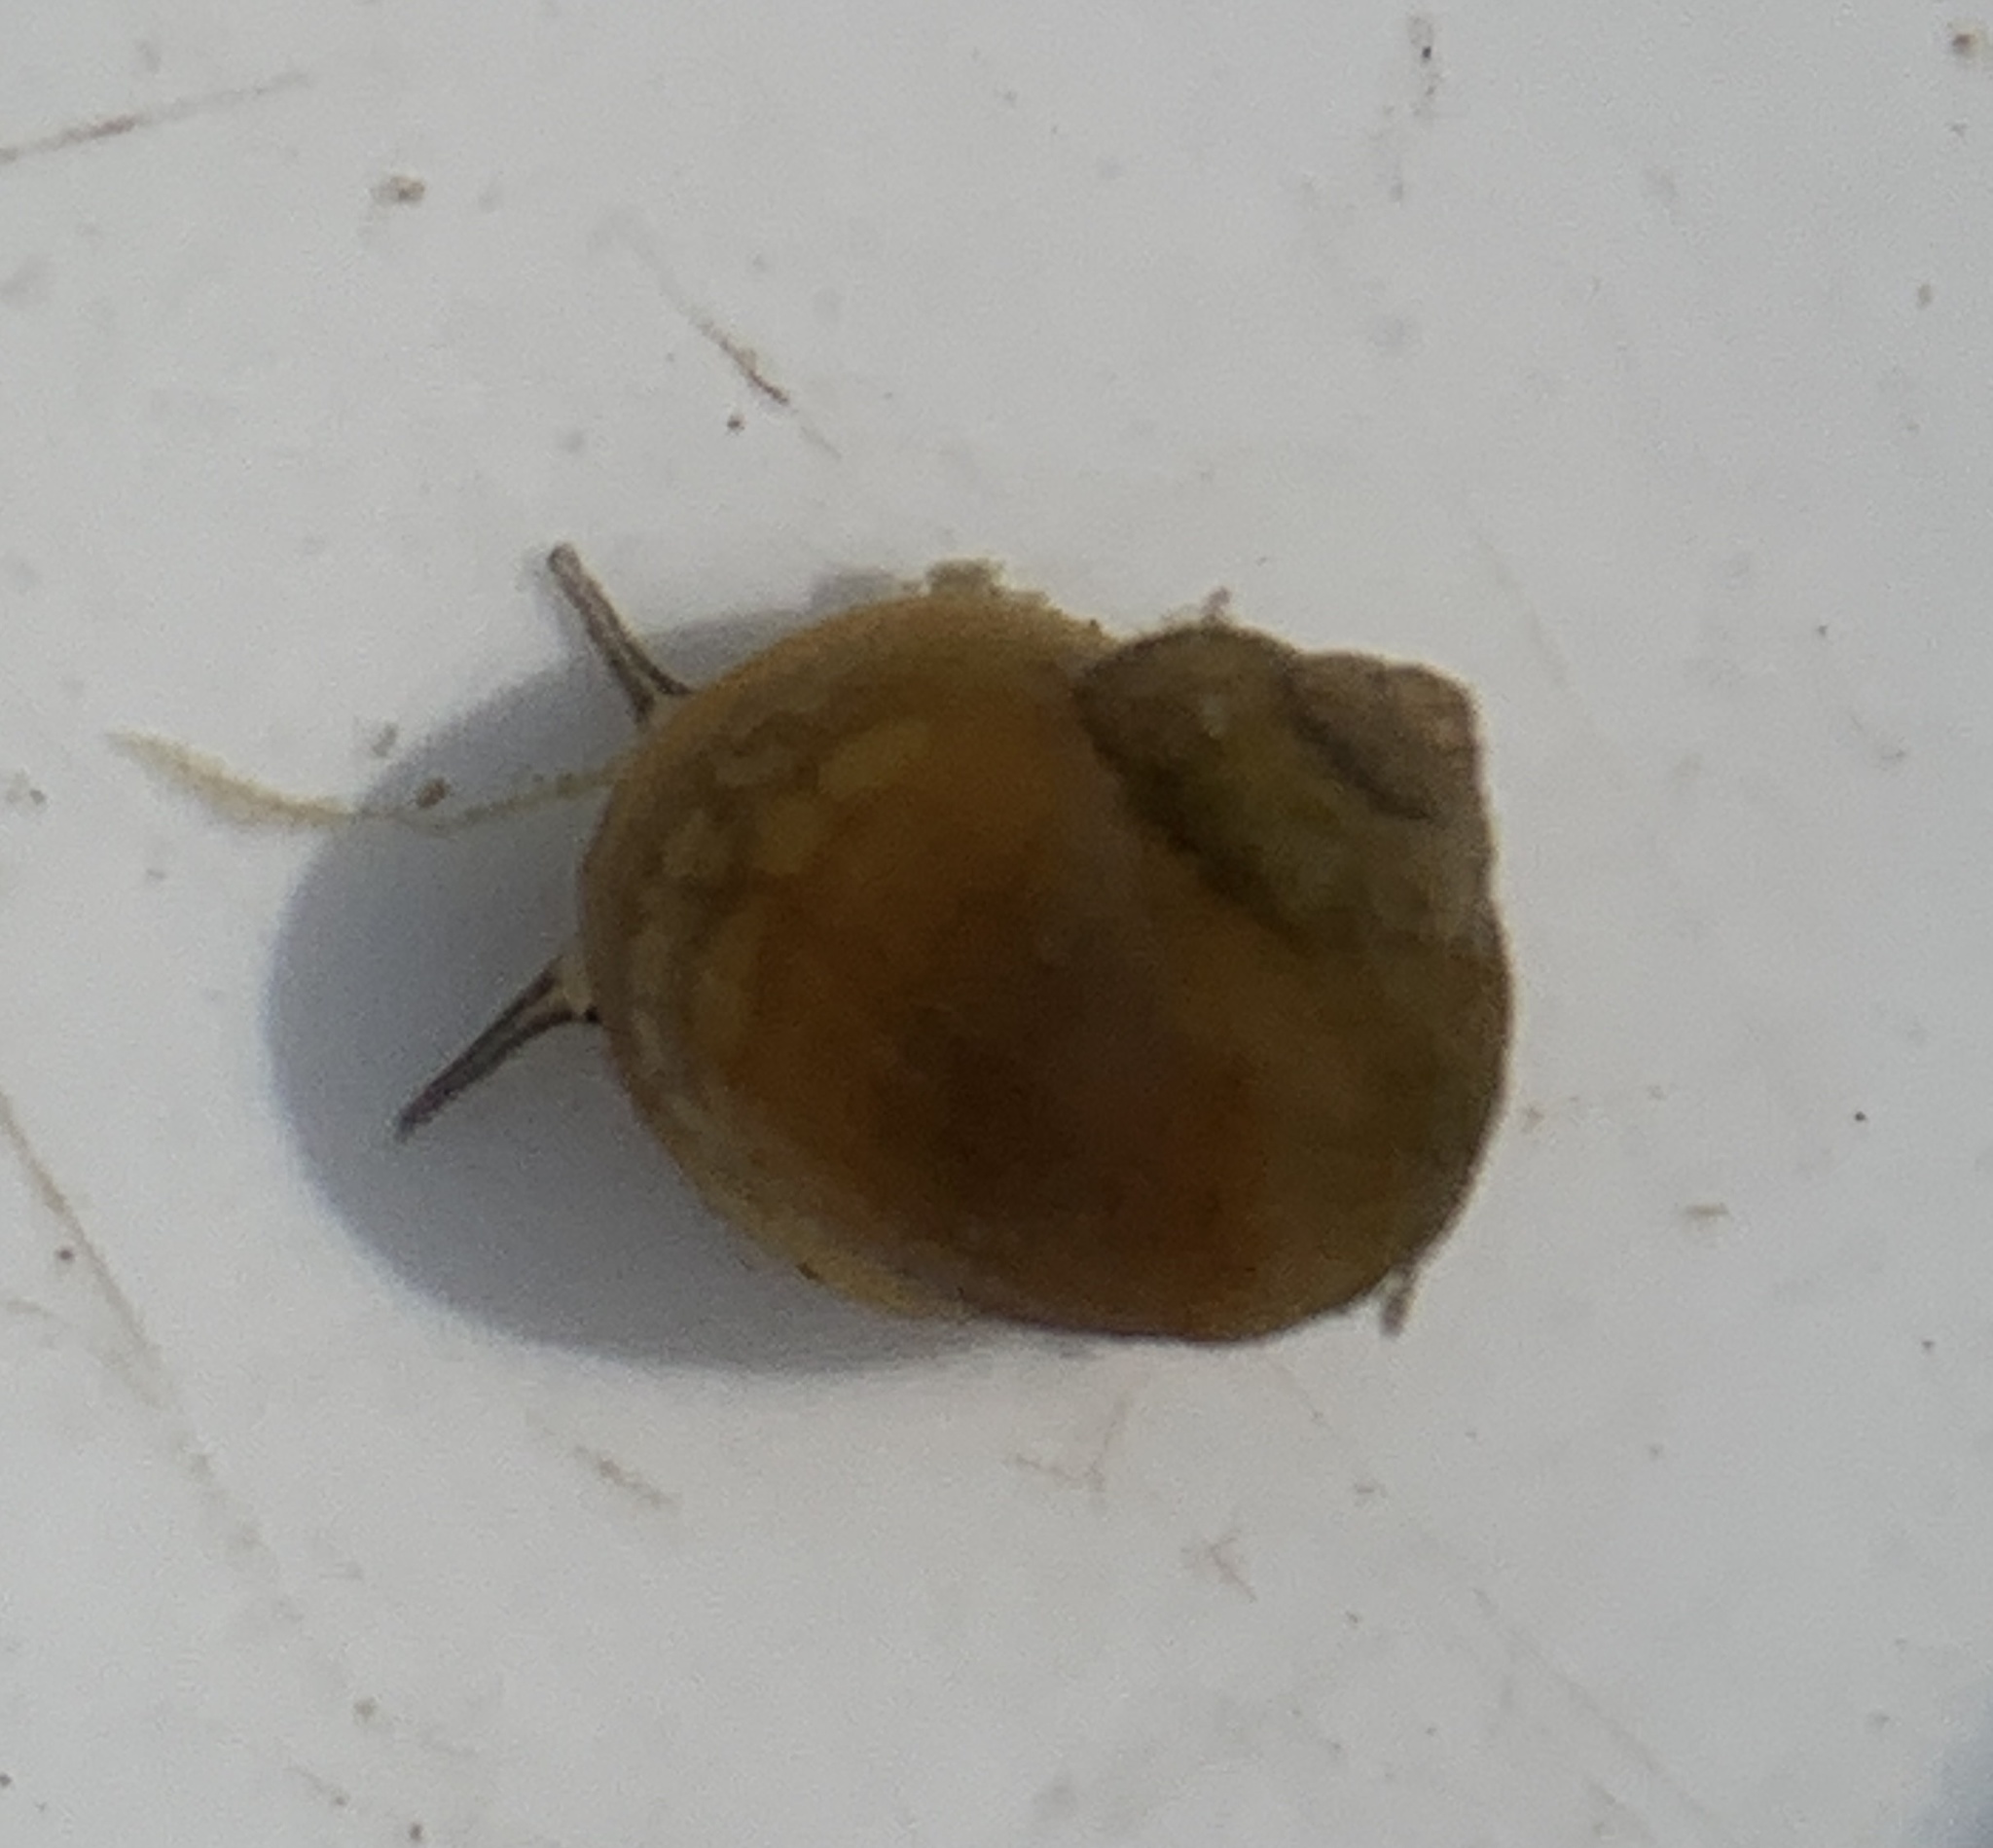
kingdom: Animalia
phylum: Mollusca
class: Gastropoda
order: Littorinimorpha
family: Littorinidae
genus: Littorina
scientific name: Littorina saxatilis
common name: Black-lined periwinkle
